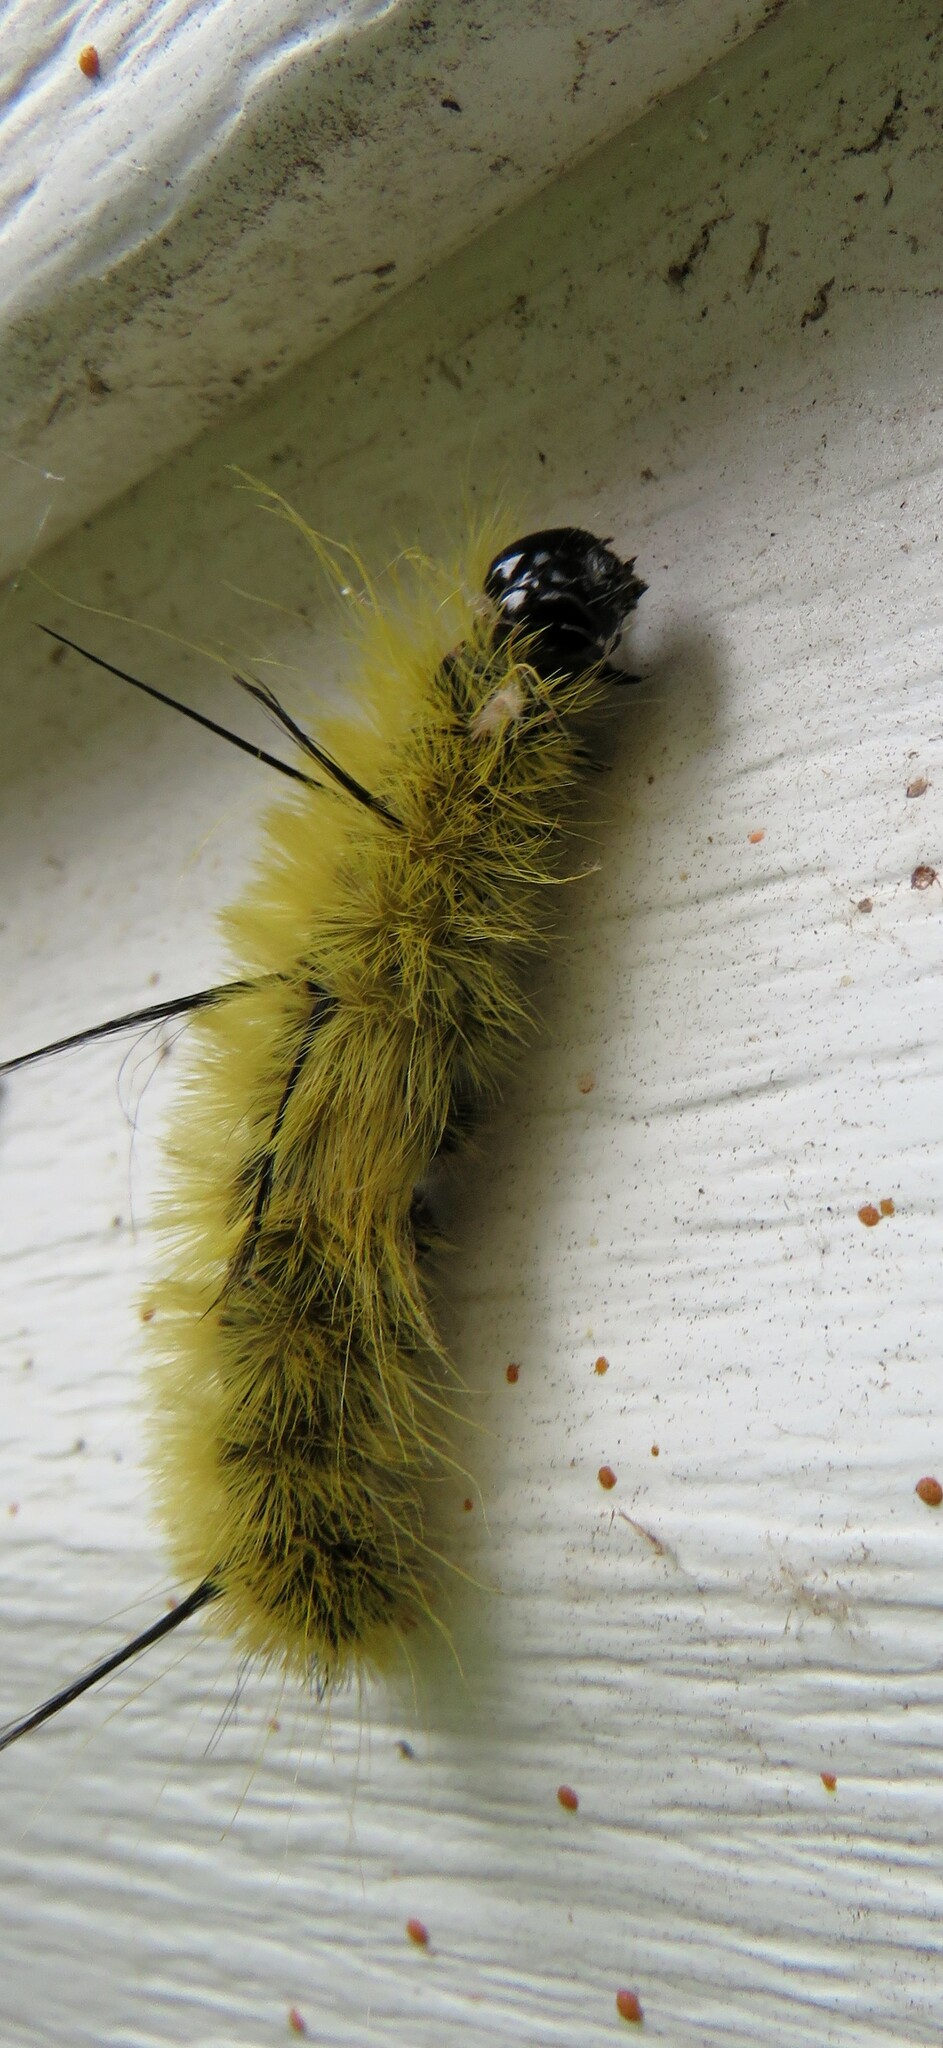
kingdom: Animalia
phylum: Arthropoda
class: Insecta
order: Lepidoptera
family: Noctuidae
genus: Acronicta
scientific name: Acronicta americana
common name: American dagger
